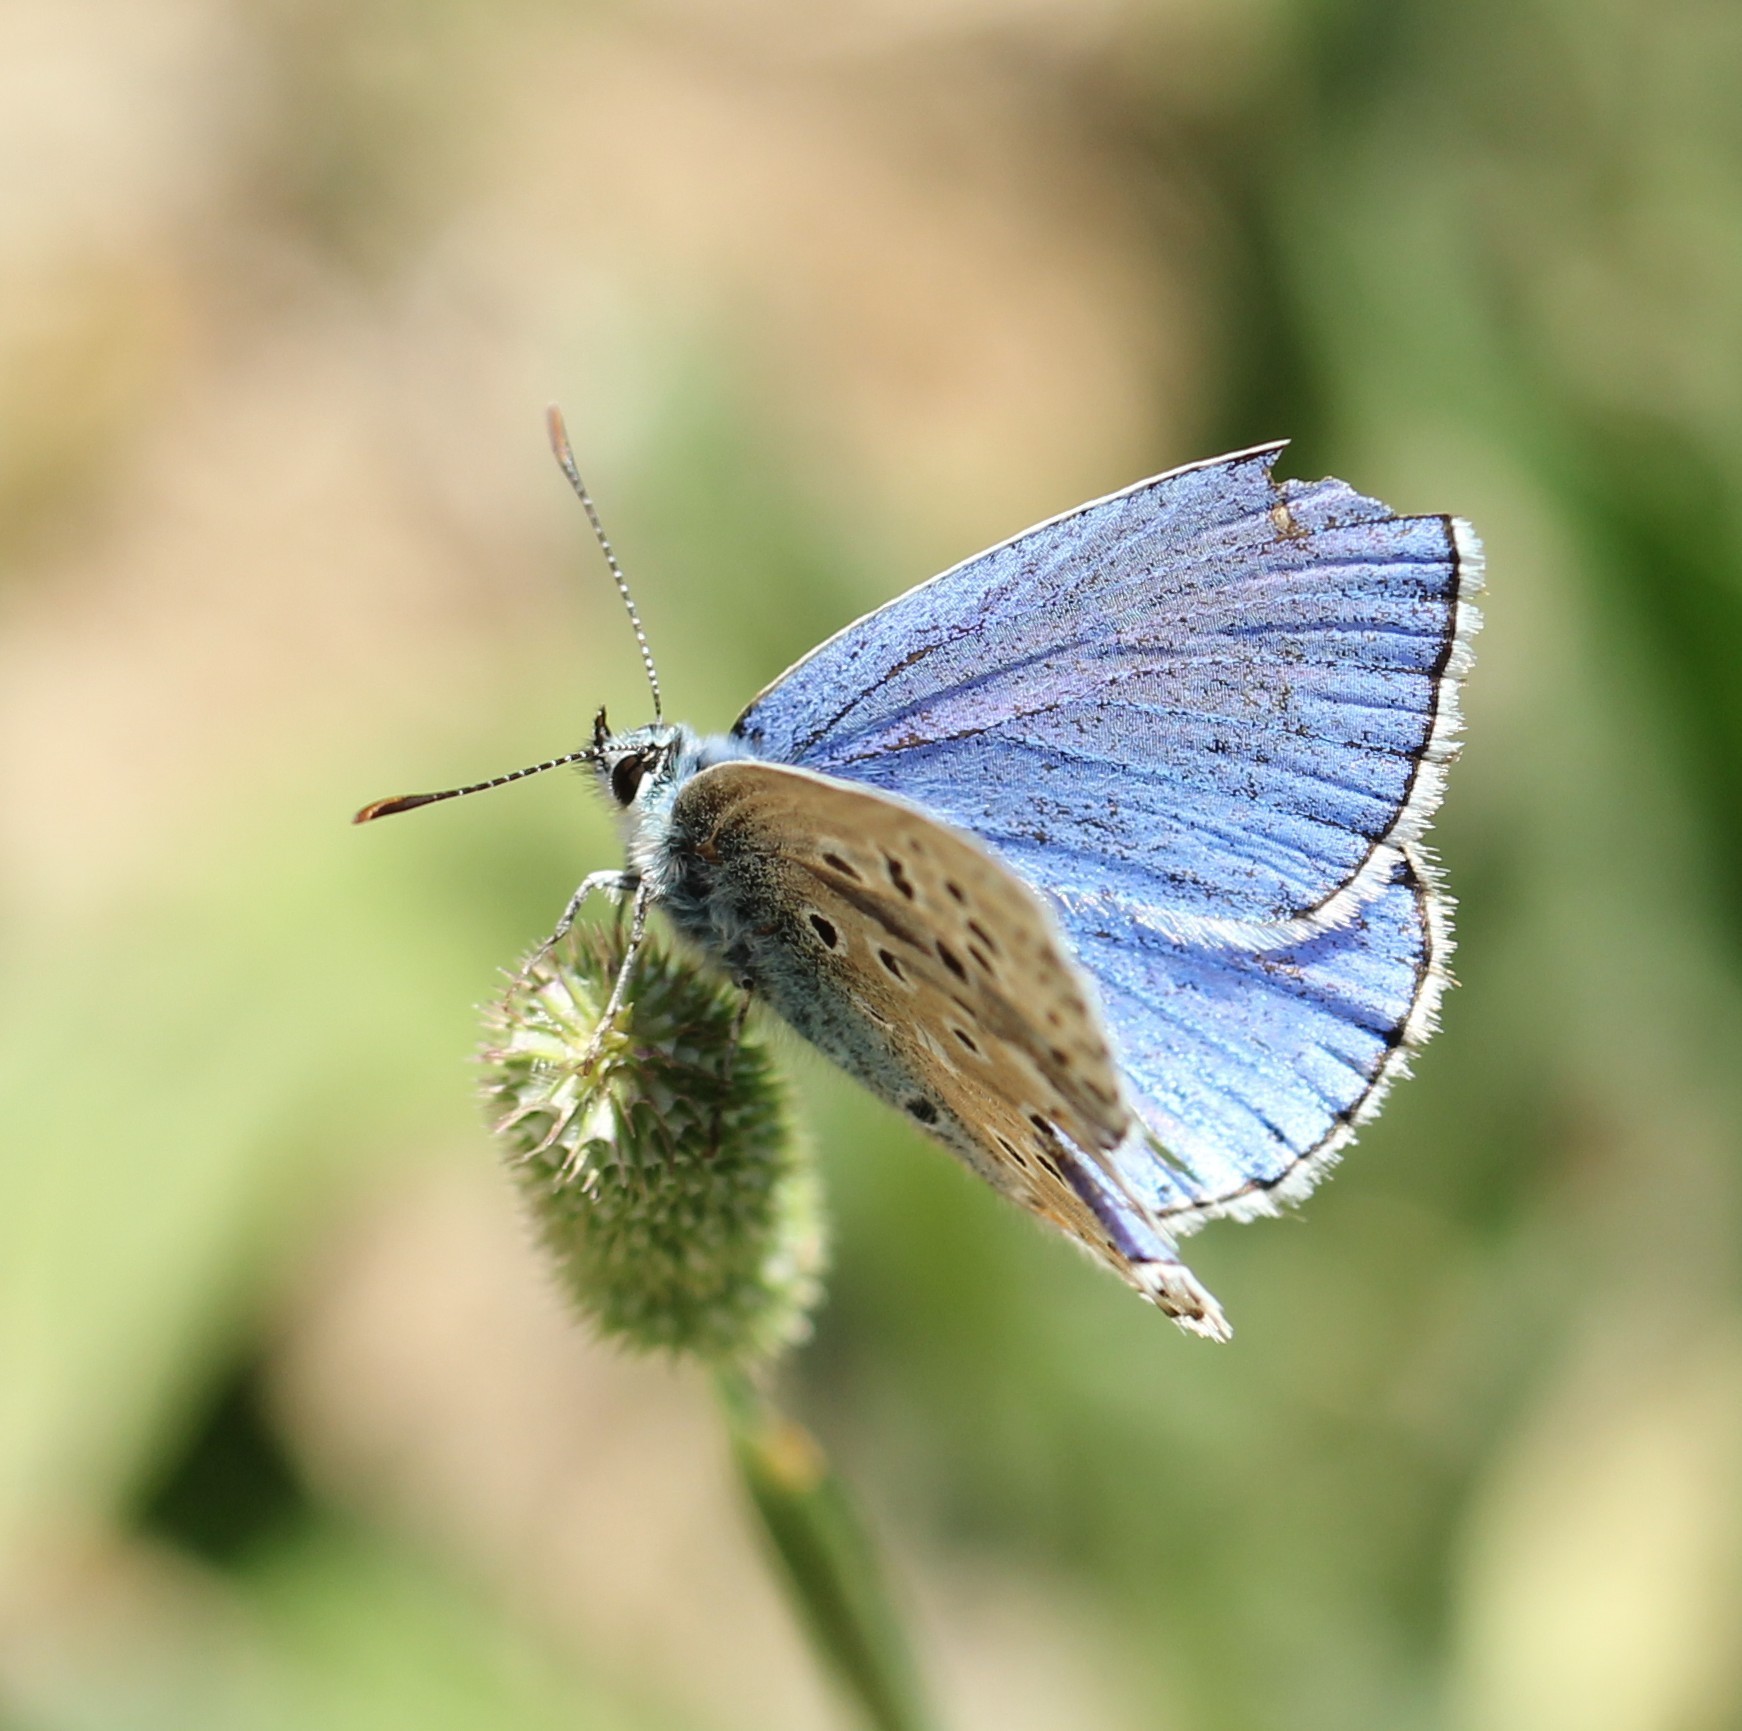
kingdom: Animalia
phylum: Arthropoda
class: Insecta
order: Lepidoptera
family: Lycaenidae
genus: Lysandra
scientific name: Lysandra bellargus
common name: Adonis blue
